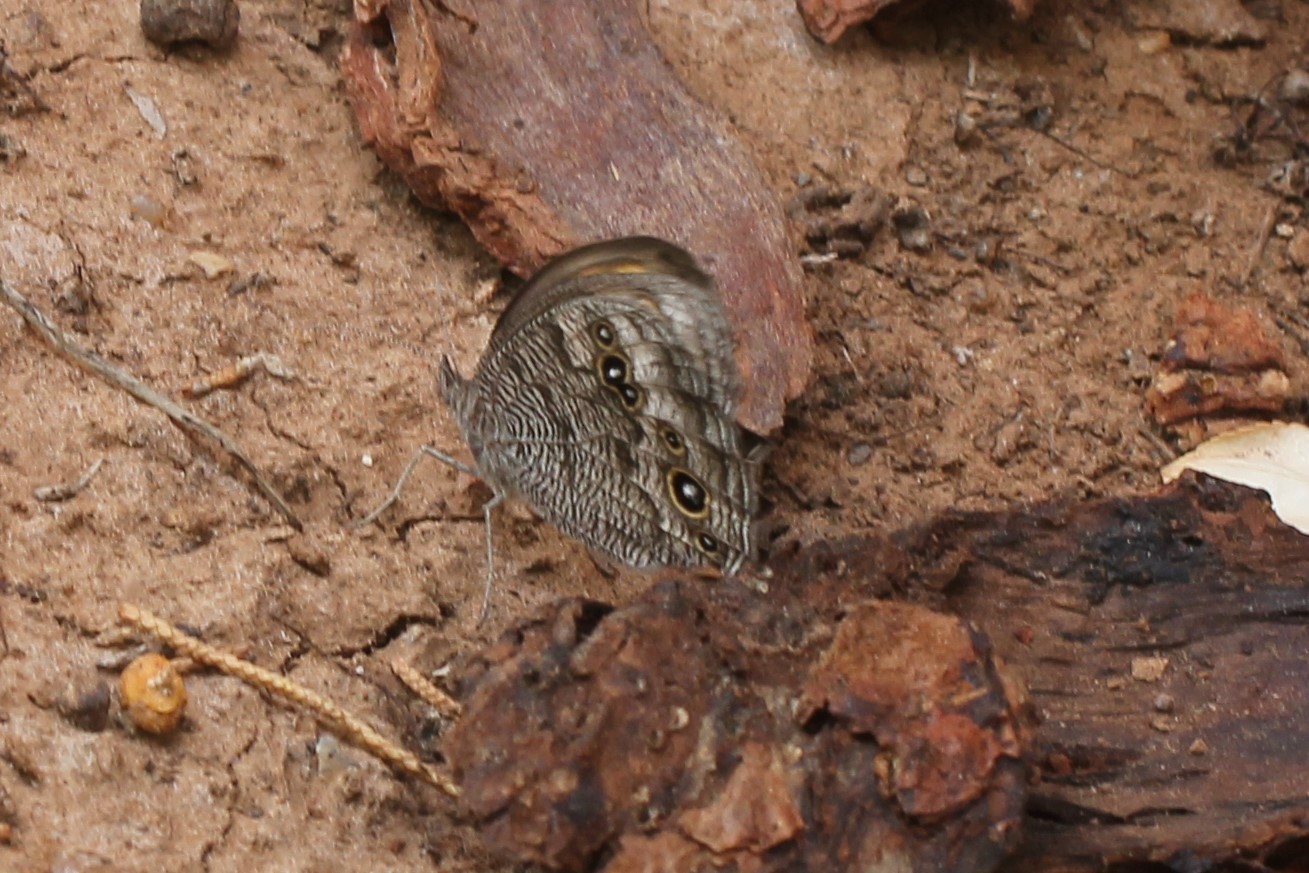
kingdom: Animalia
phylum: Arthropoda
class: Insecta
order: Lepidoptera
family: Nymphalidae
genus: Cercyonis
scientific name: Cercyonis pegala
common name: Common wood-nymph
